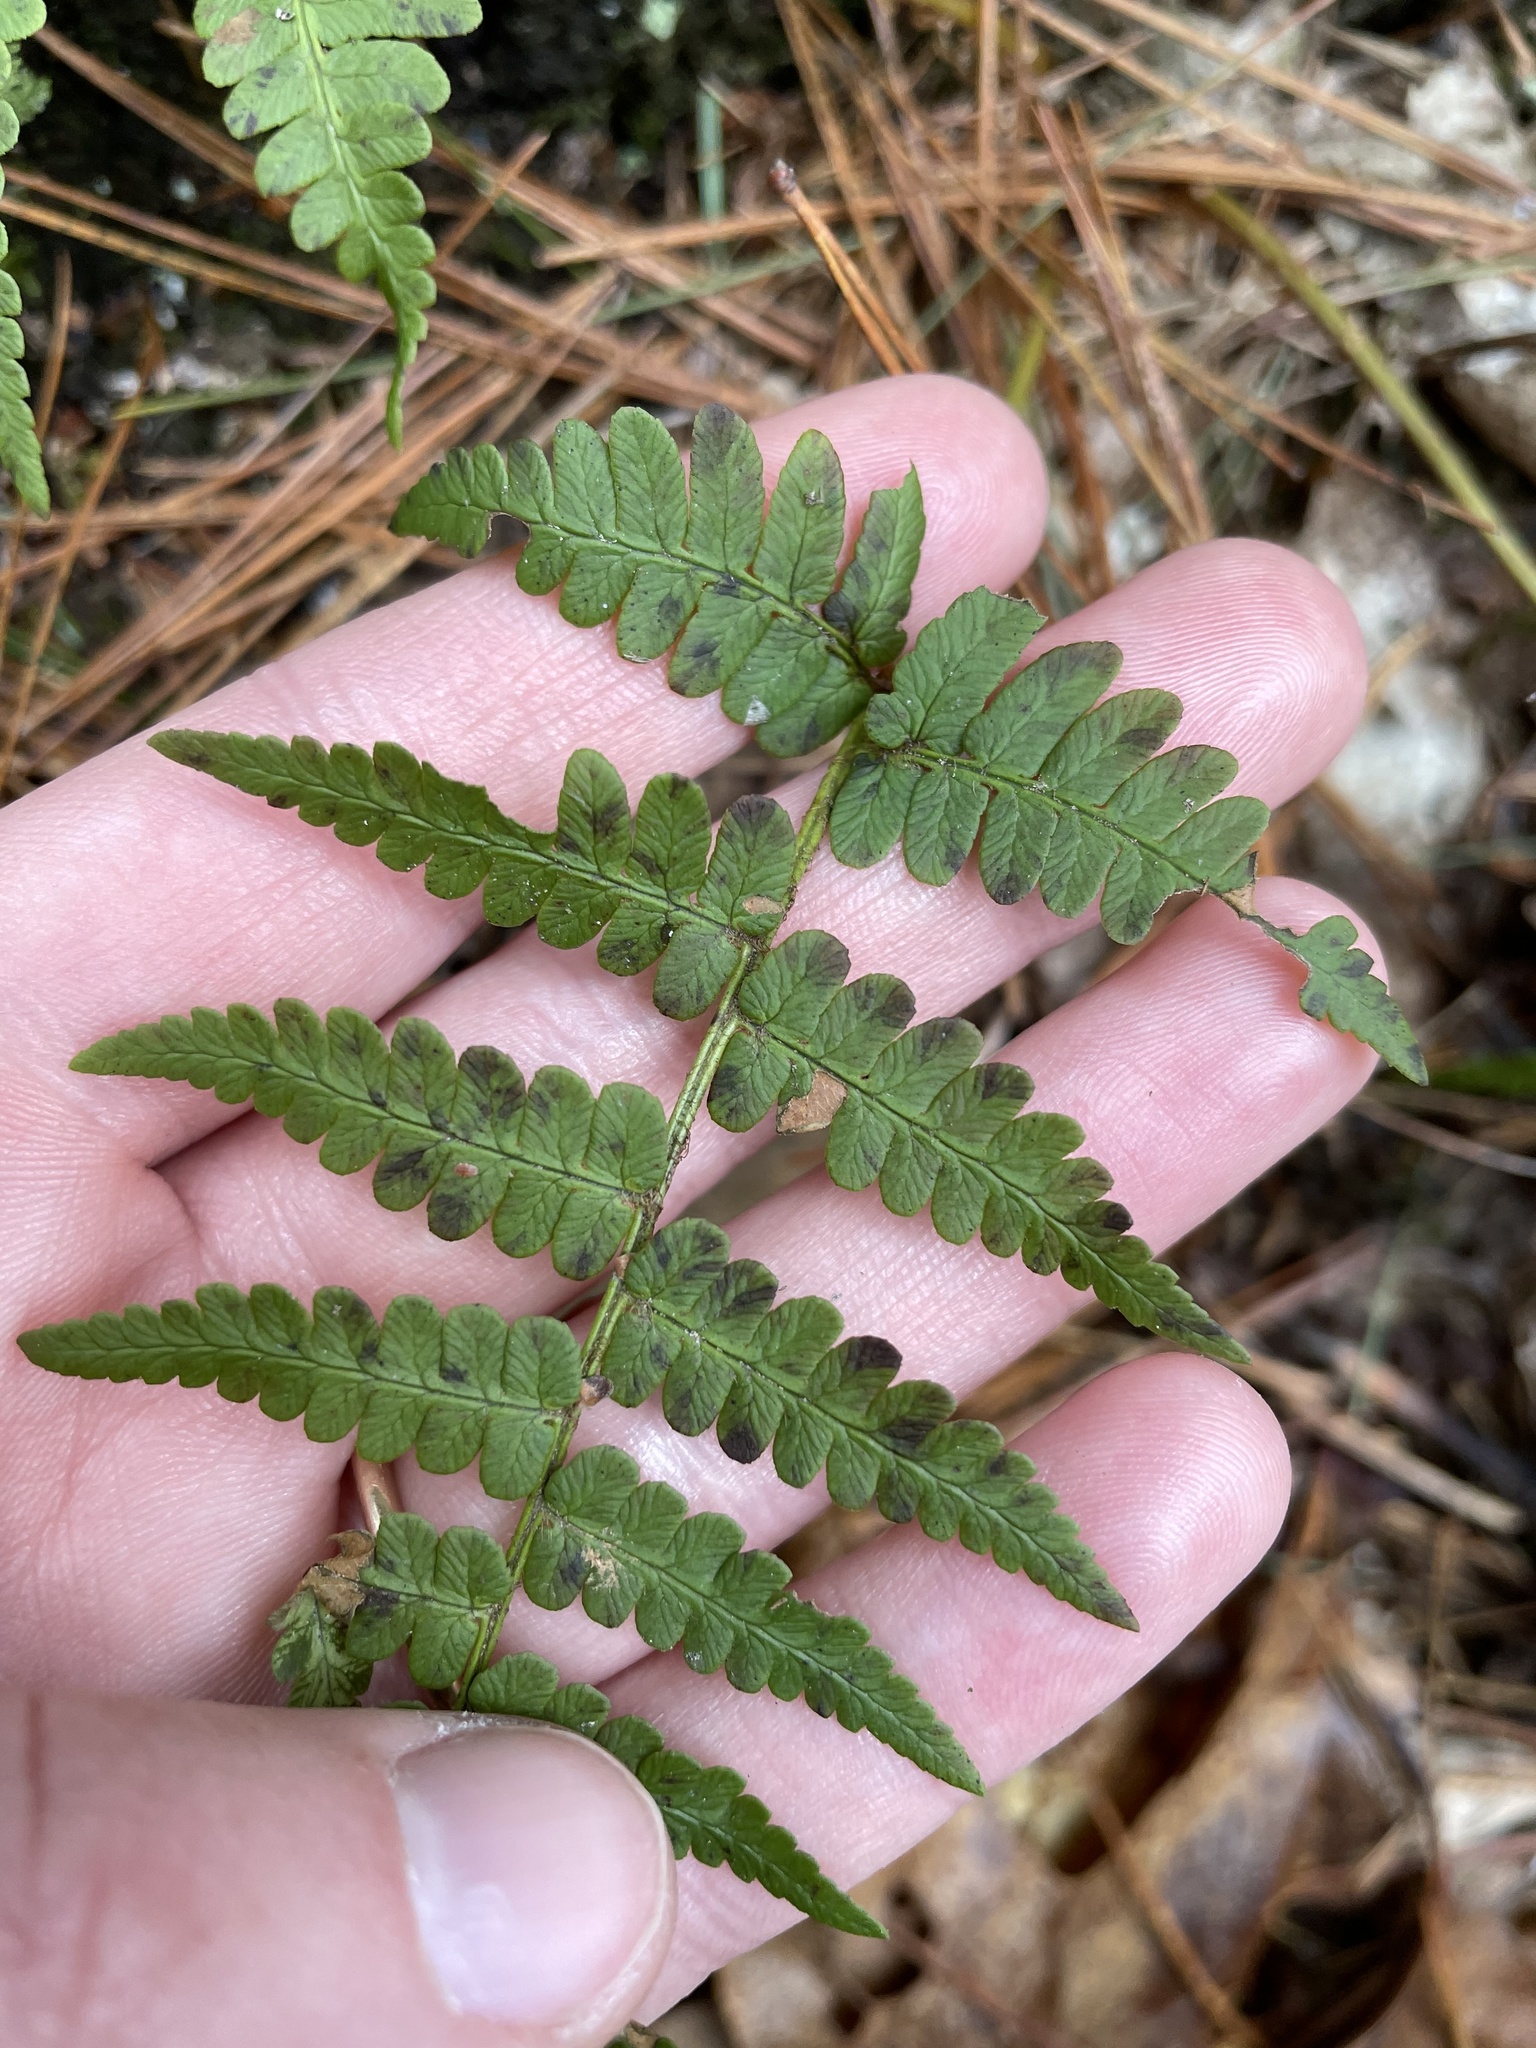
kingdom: Plantae
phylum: Tracheophyta
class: Polypodiopsida
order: Polypodiales
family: Dryopteridaceae
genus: Dryopteris
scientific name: Dryopteris marginalis
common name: Marginal wood fern
